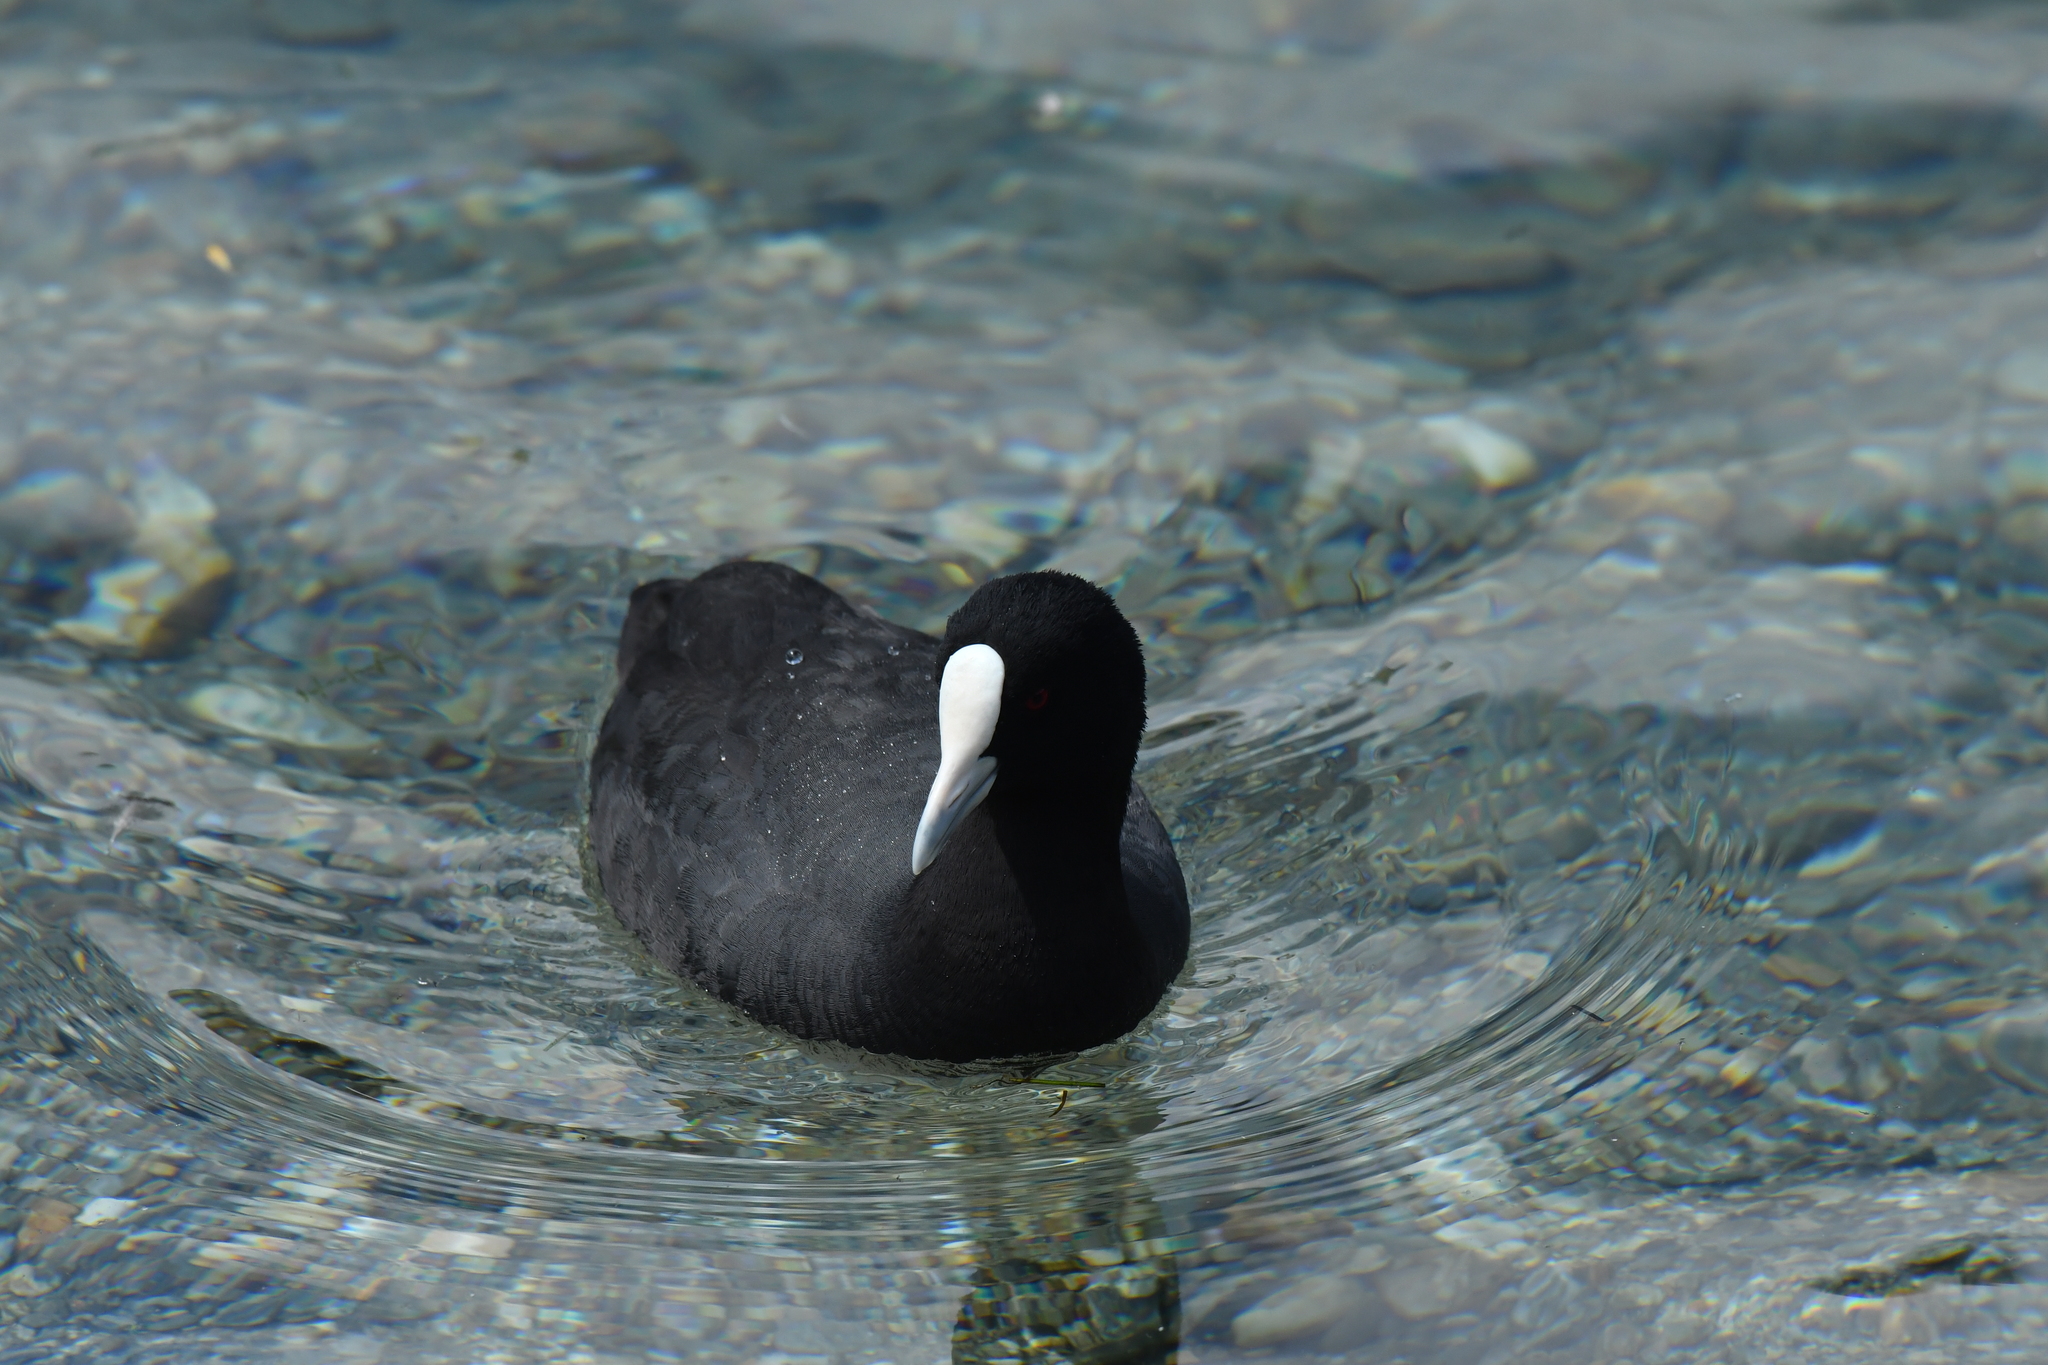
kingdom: Animalia
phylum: Chordata
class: Aves
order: Gruiformes
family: Rallidae
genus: Fulica
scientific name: Fulica atra
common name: Eurasian coot
